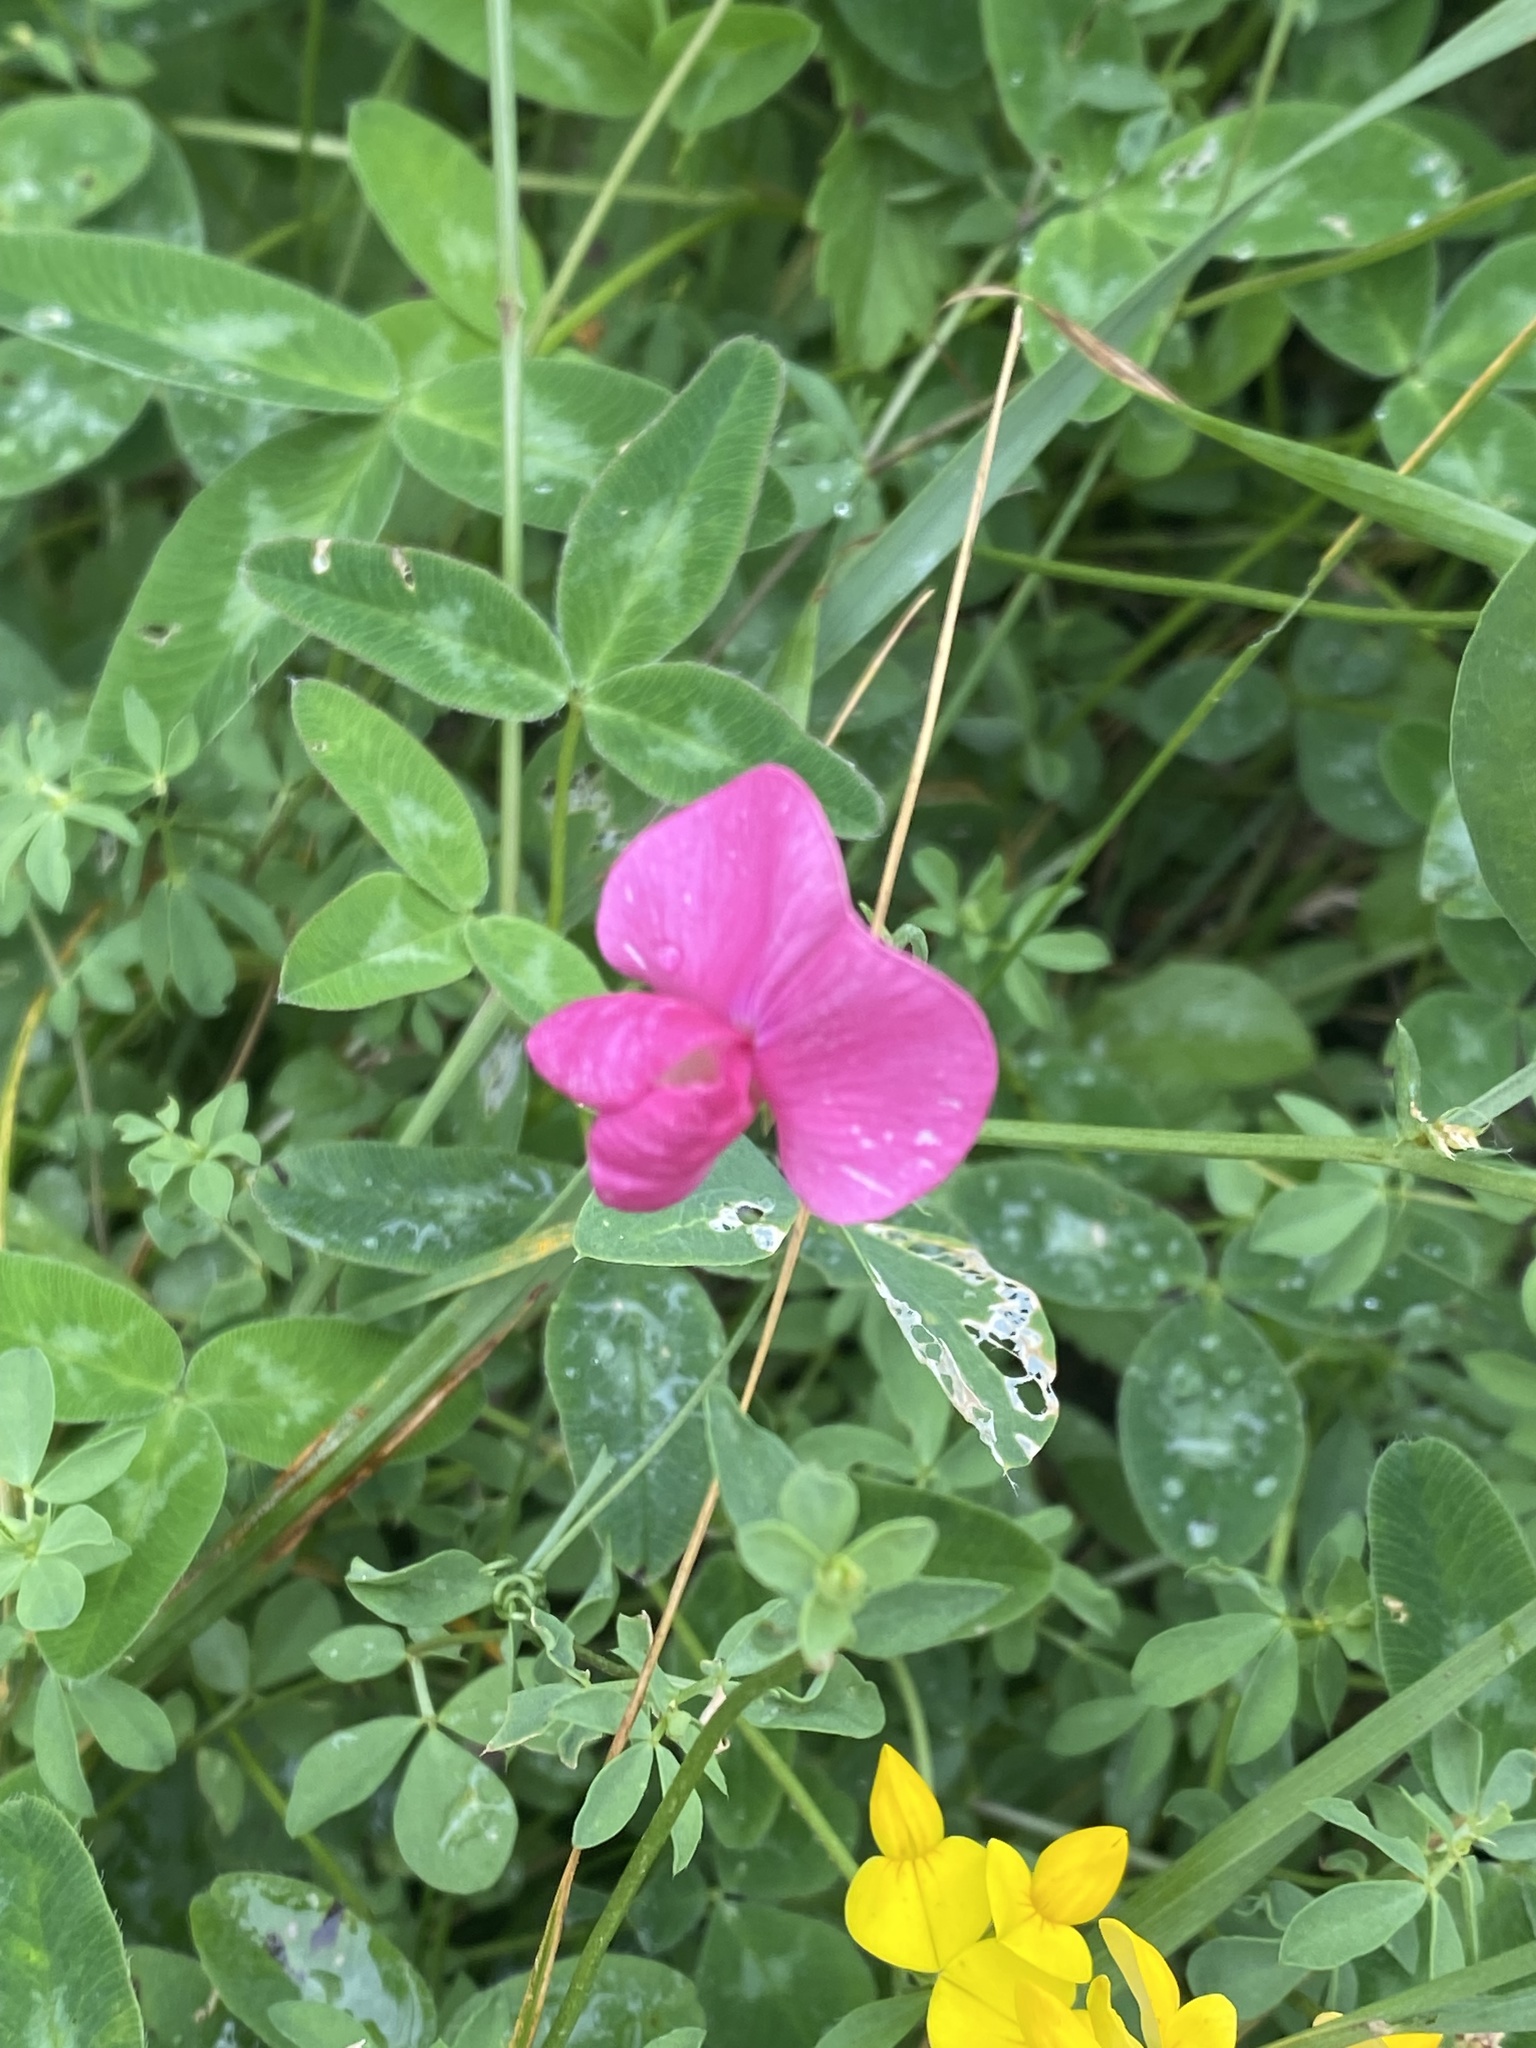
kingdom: Plantae
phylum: Tracheophyta
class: Magnoliopsida
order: Fabales
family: Fabaceae
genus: Lathyrus
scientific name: Lathyrus tuberosus
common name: Tuberous pea
